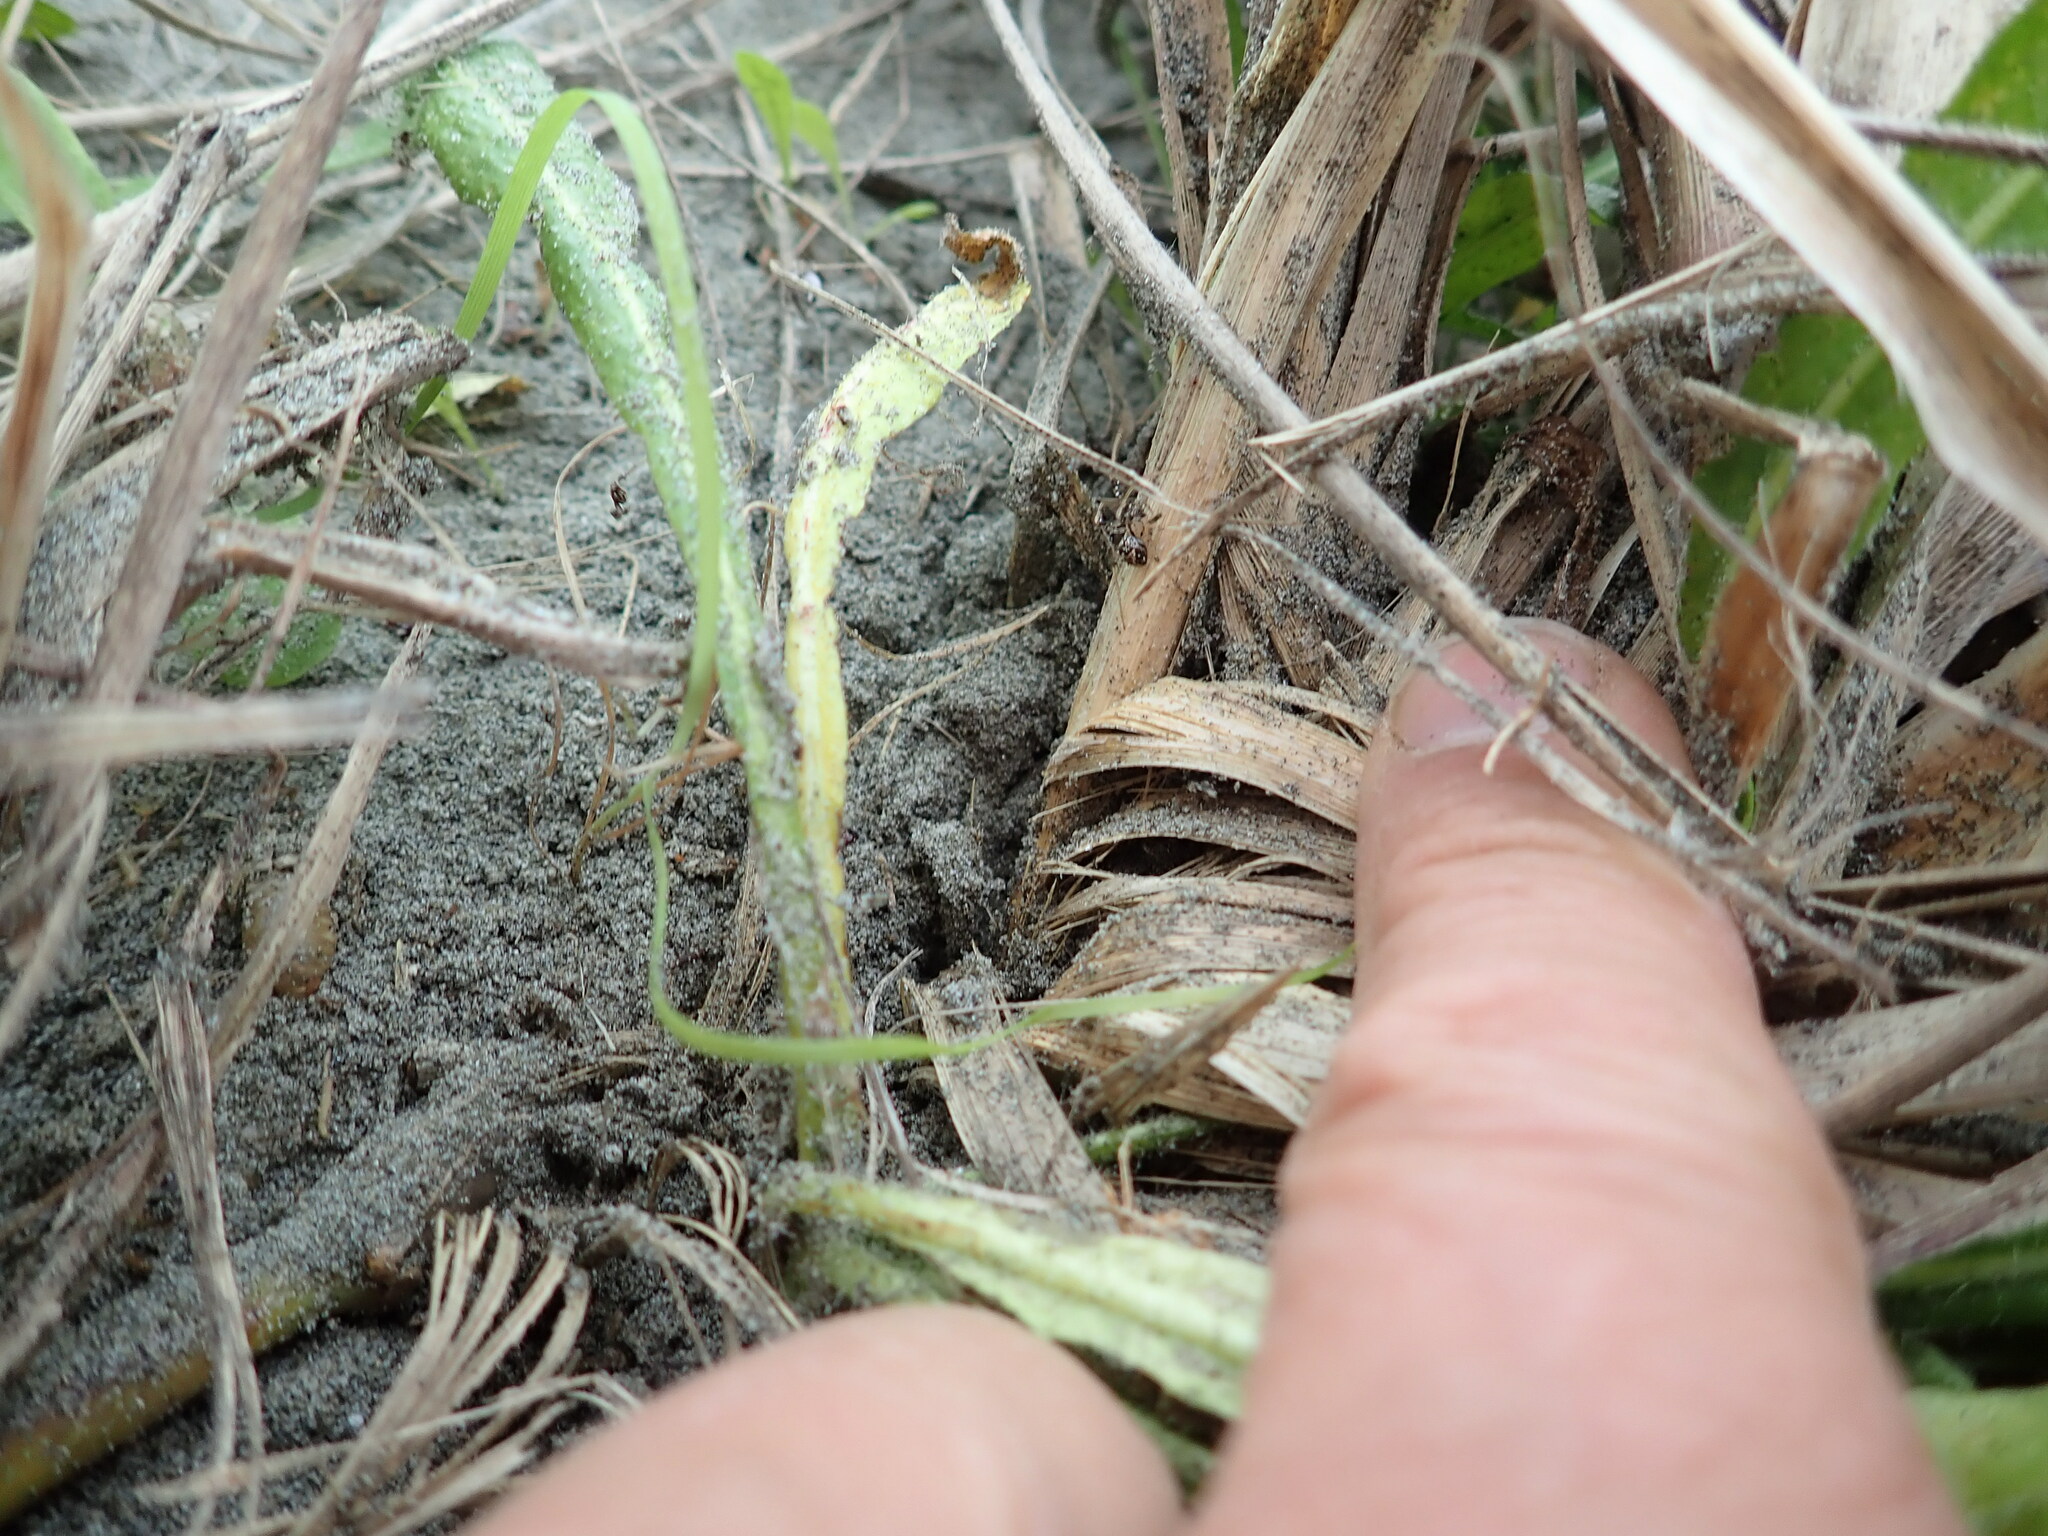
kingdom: Animalia
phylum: Arthropoda
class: Arachnida
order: Araneae
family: Mimetidae
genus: Australomimetus
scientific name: Australomimetus hartleyensis
